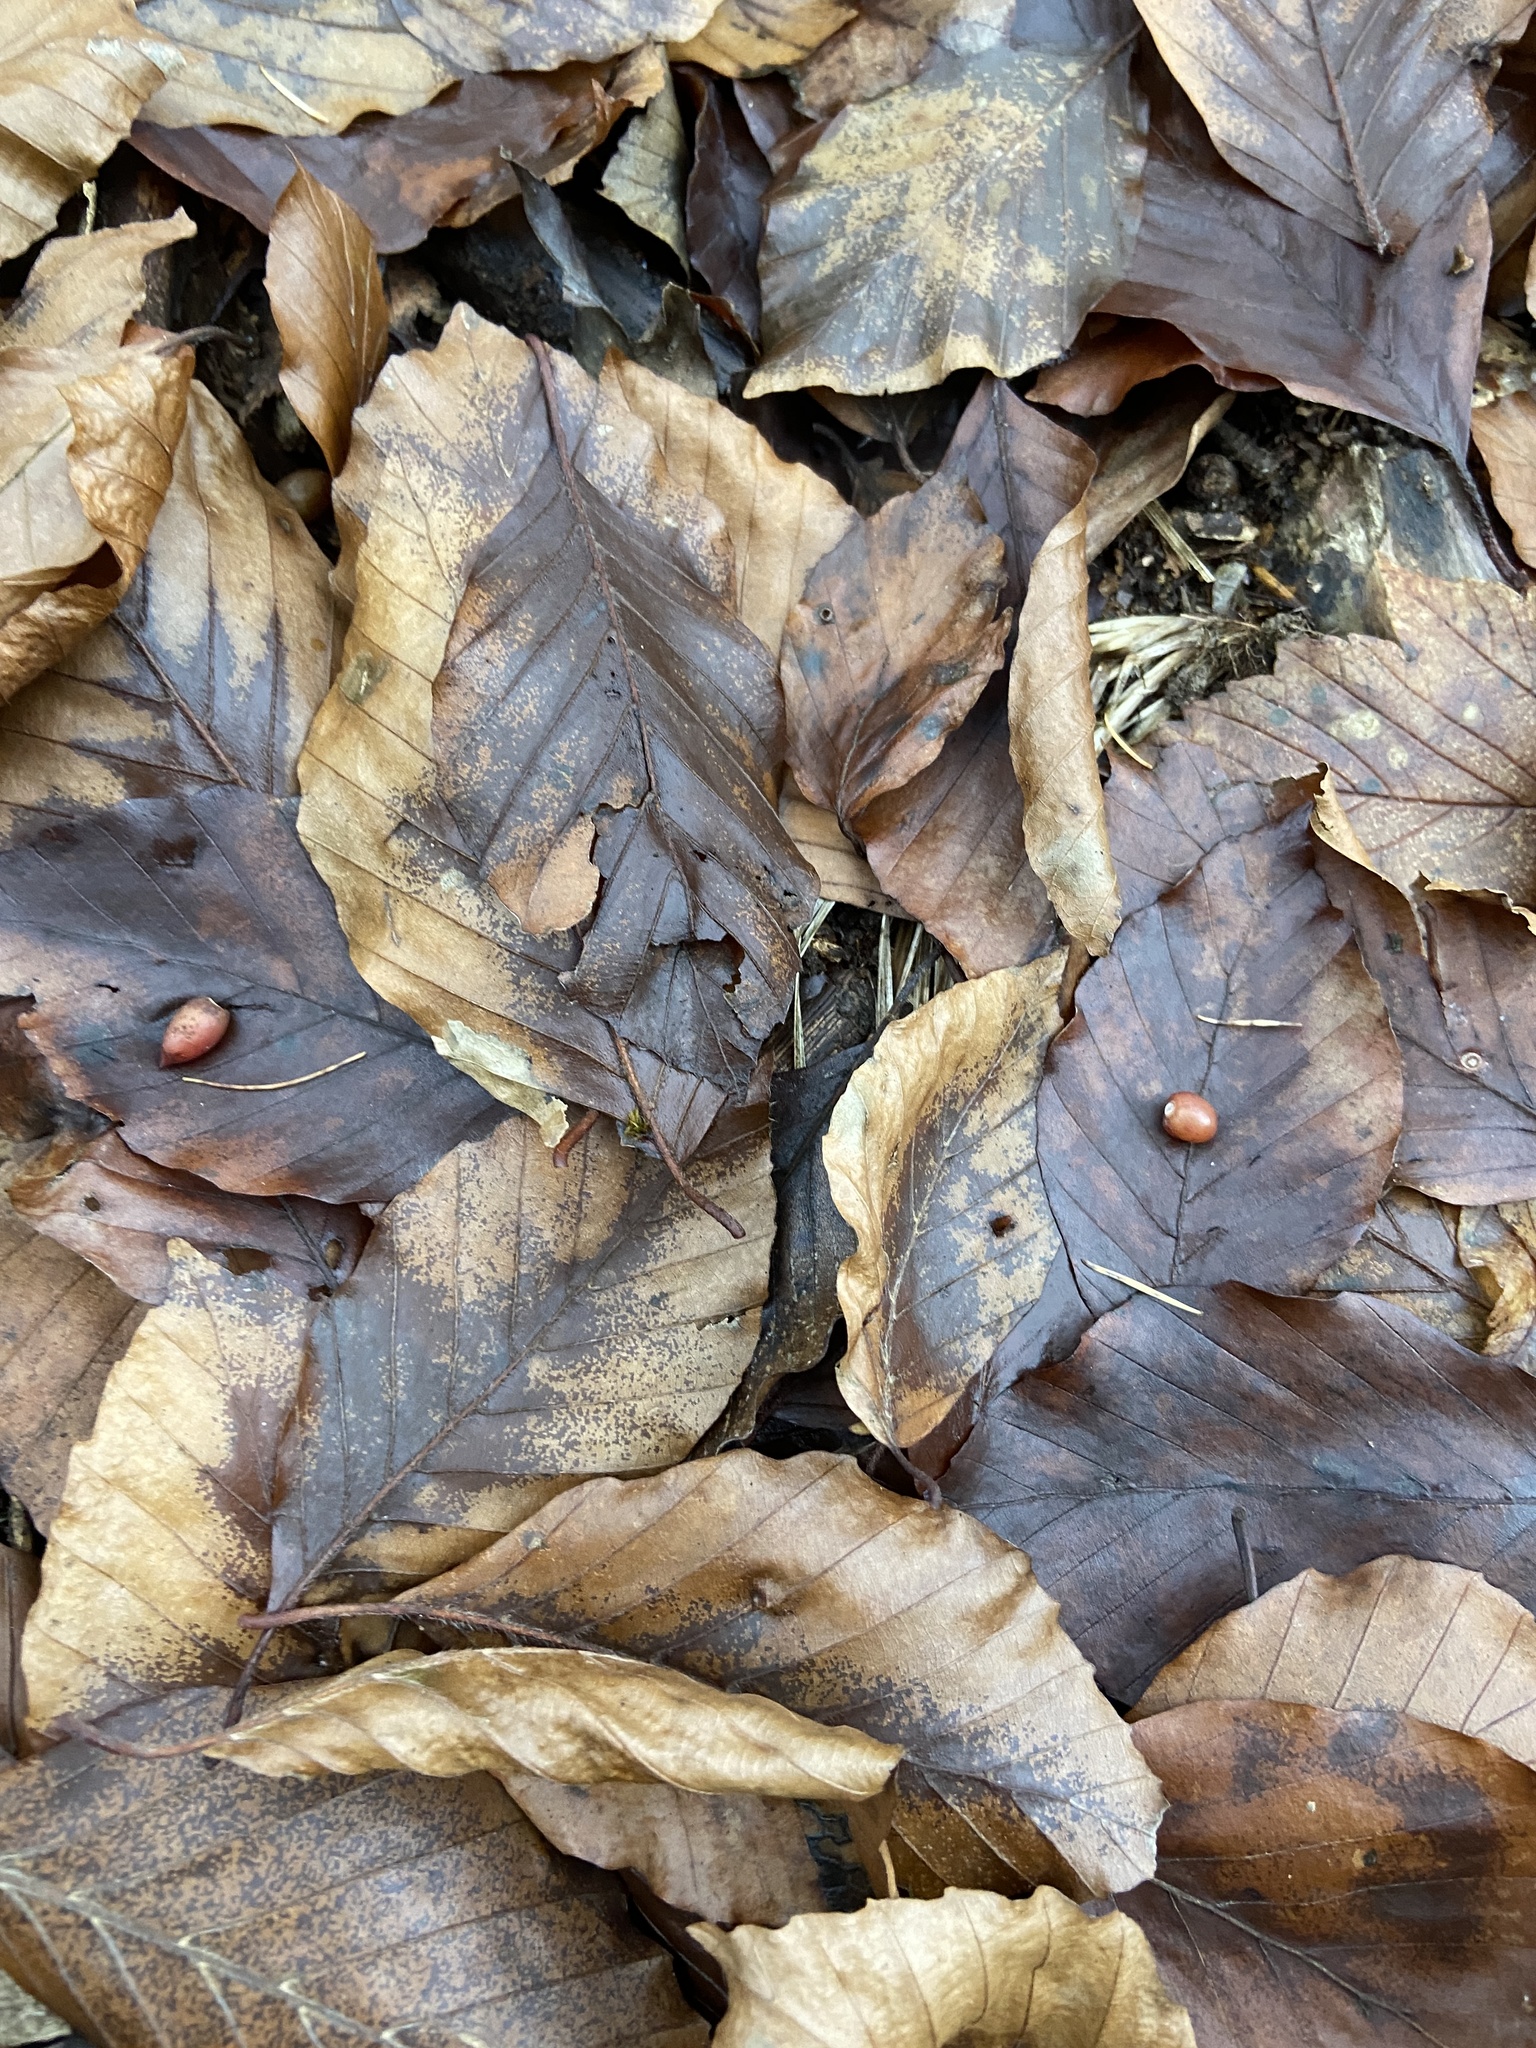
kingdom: Animalia
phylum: Arthropoda
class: Insecta
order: Diptera
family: Cecidomyiidae
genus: Mikiola
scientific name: Mikiola fagi
